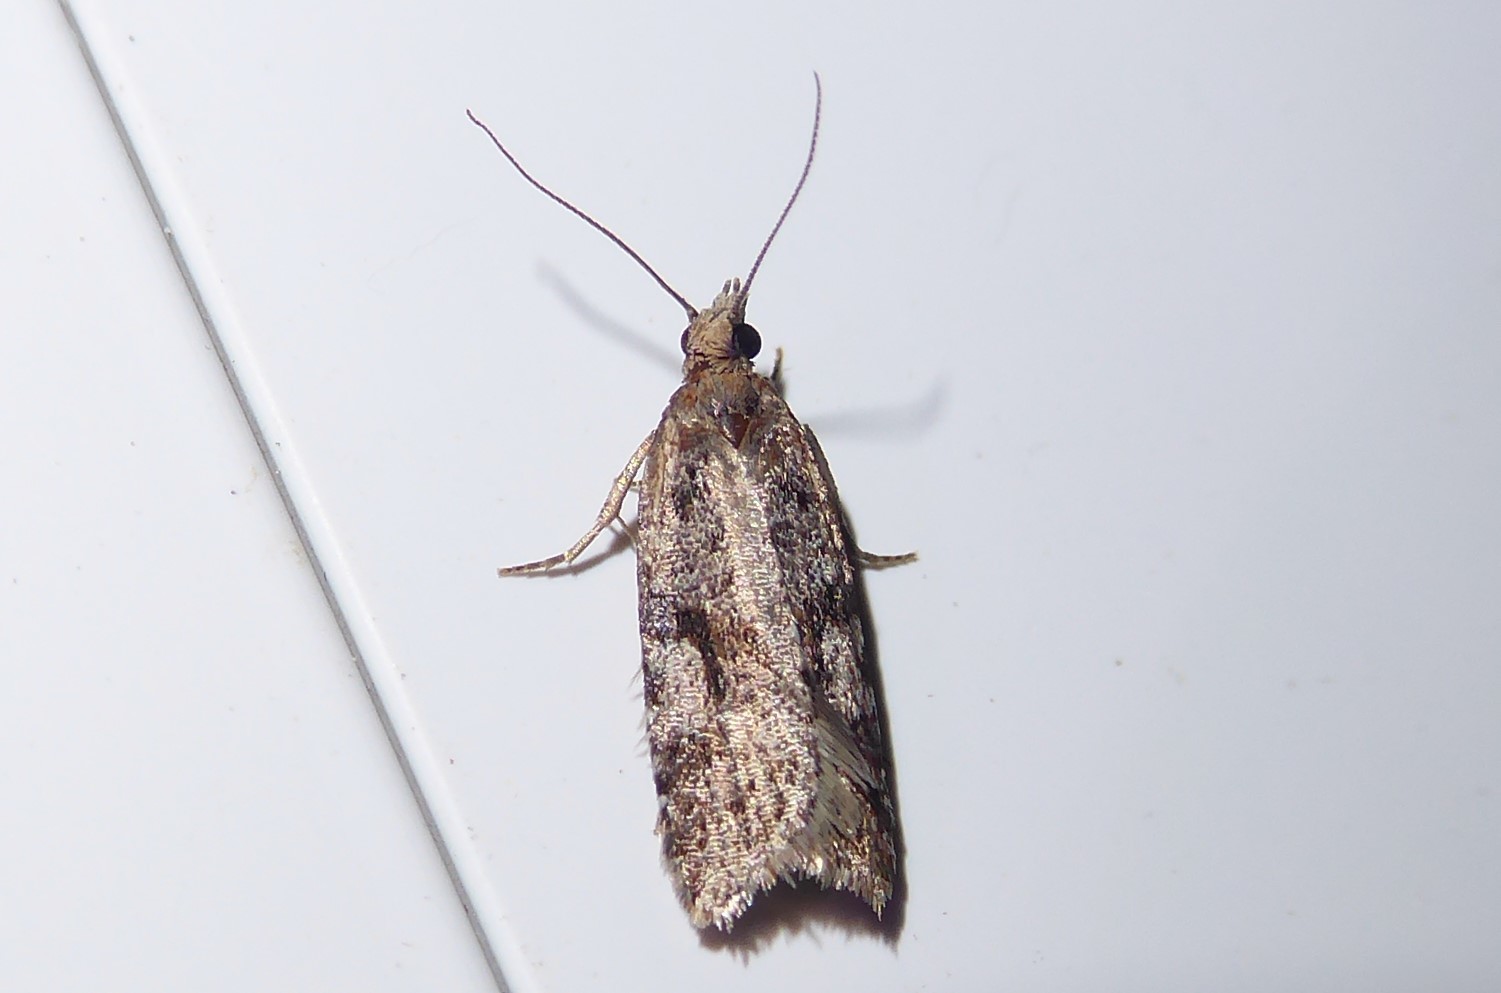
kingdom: Animalia
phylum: Arthropoda
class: Insecta
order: Lepidoptera
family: Tortricidae
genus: Capua
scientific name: Capua semiferana
